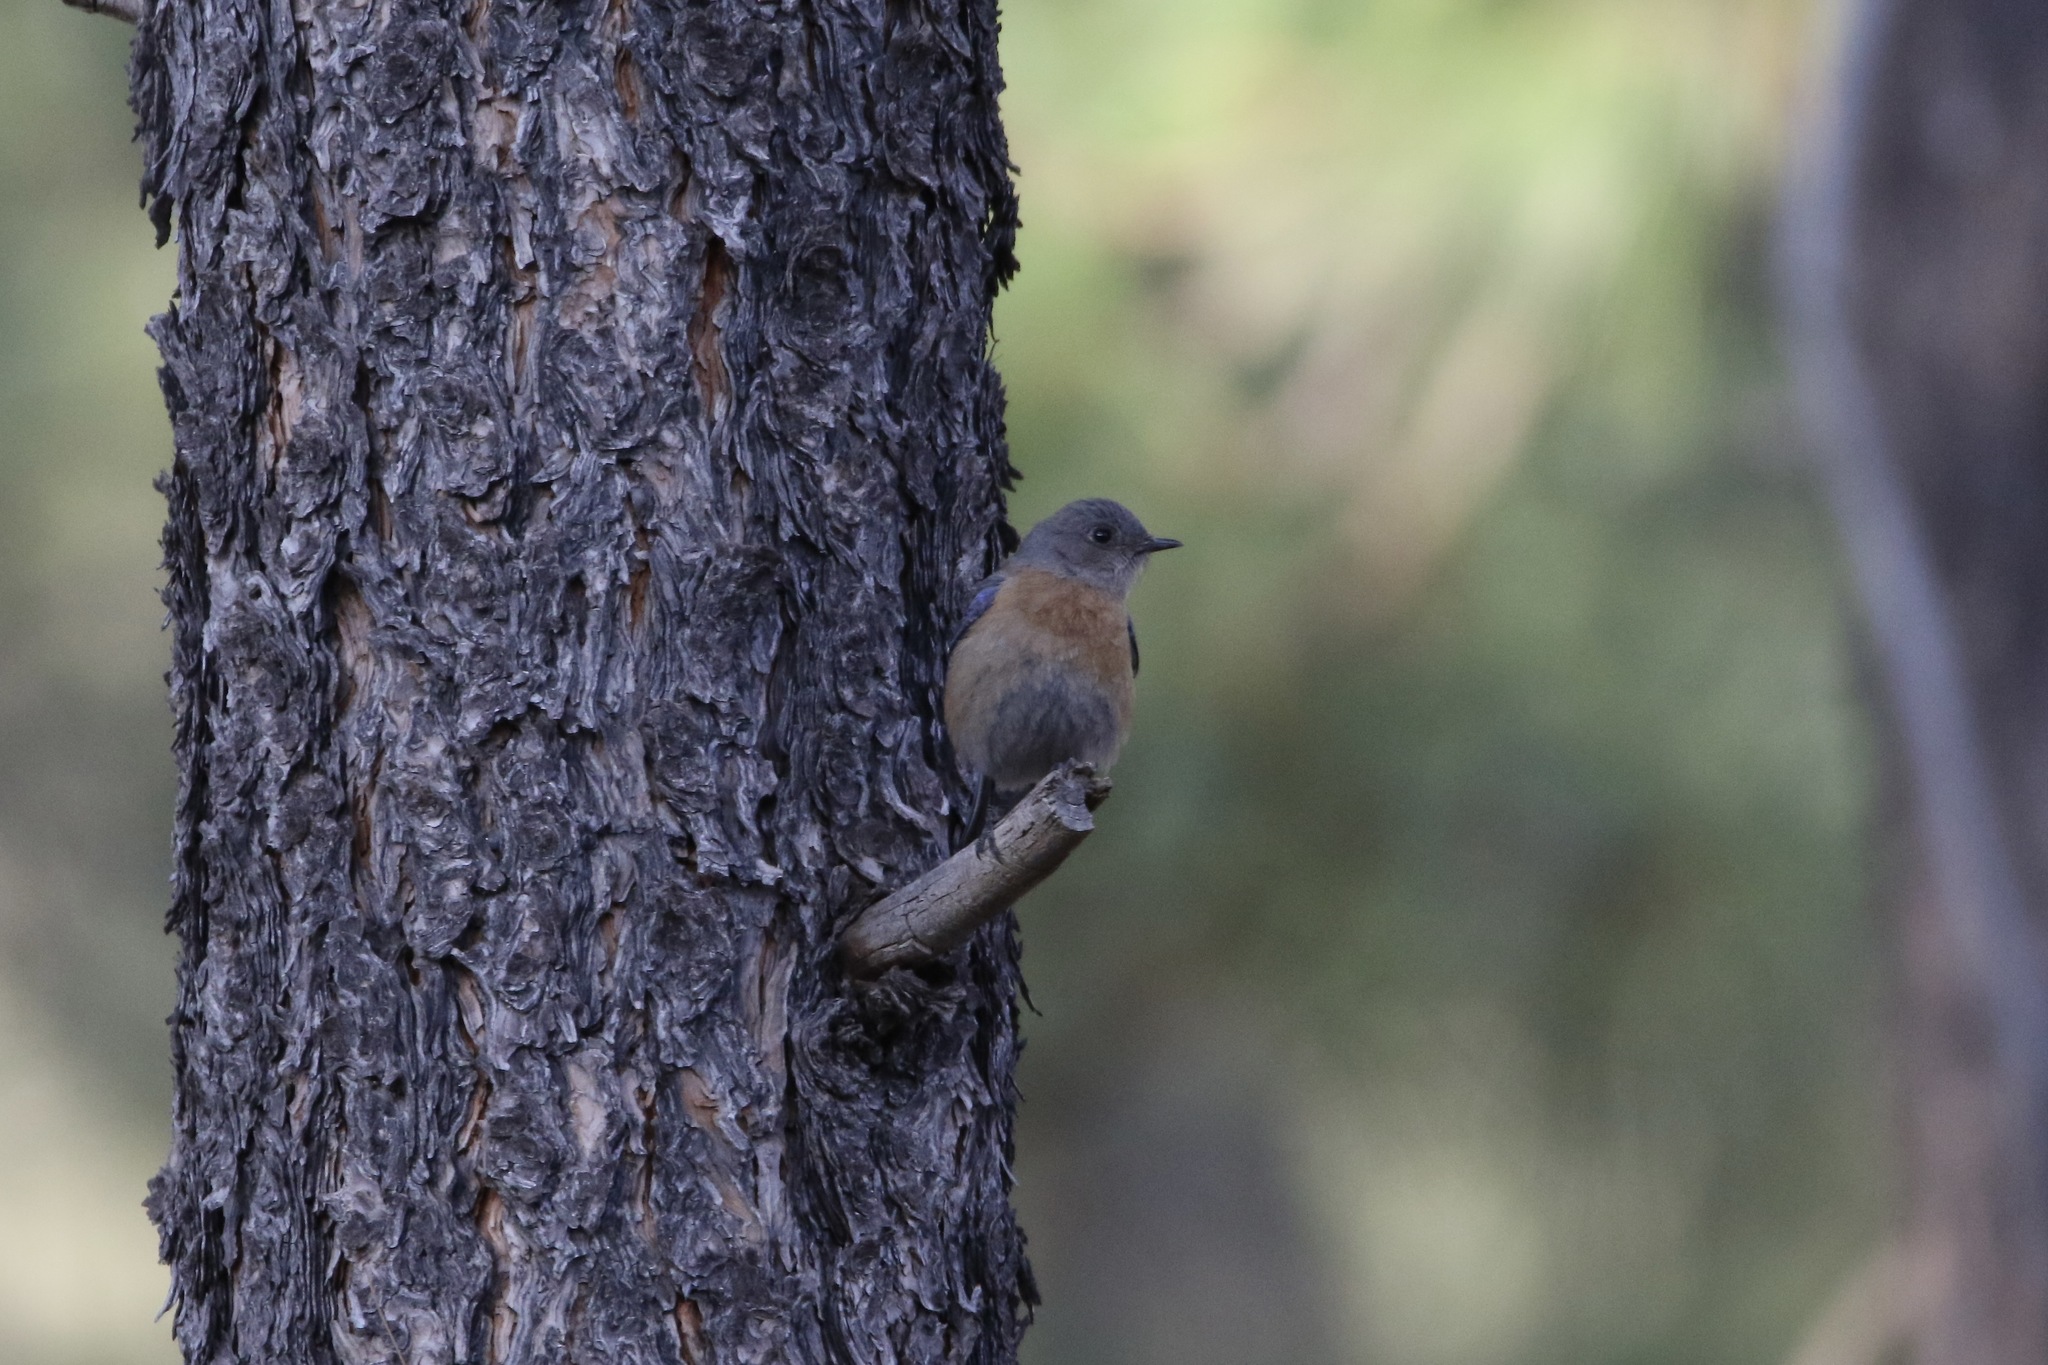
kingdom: Animalia
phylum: Chordata
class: Aves
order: Passeriformes
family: Turdidae
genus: Sialia
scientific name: Sialia mexicana
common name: Western bluebird
